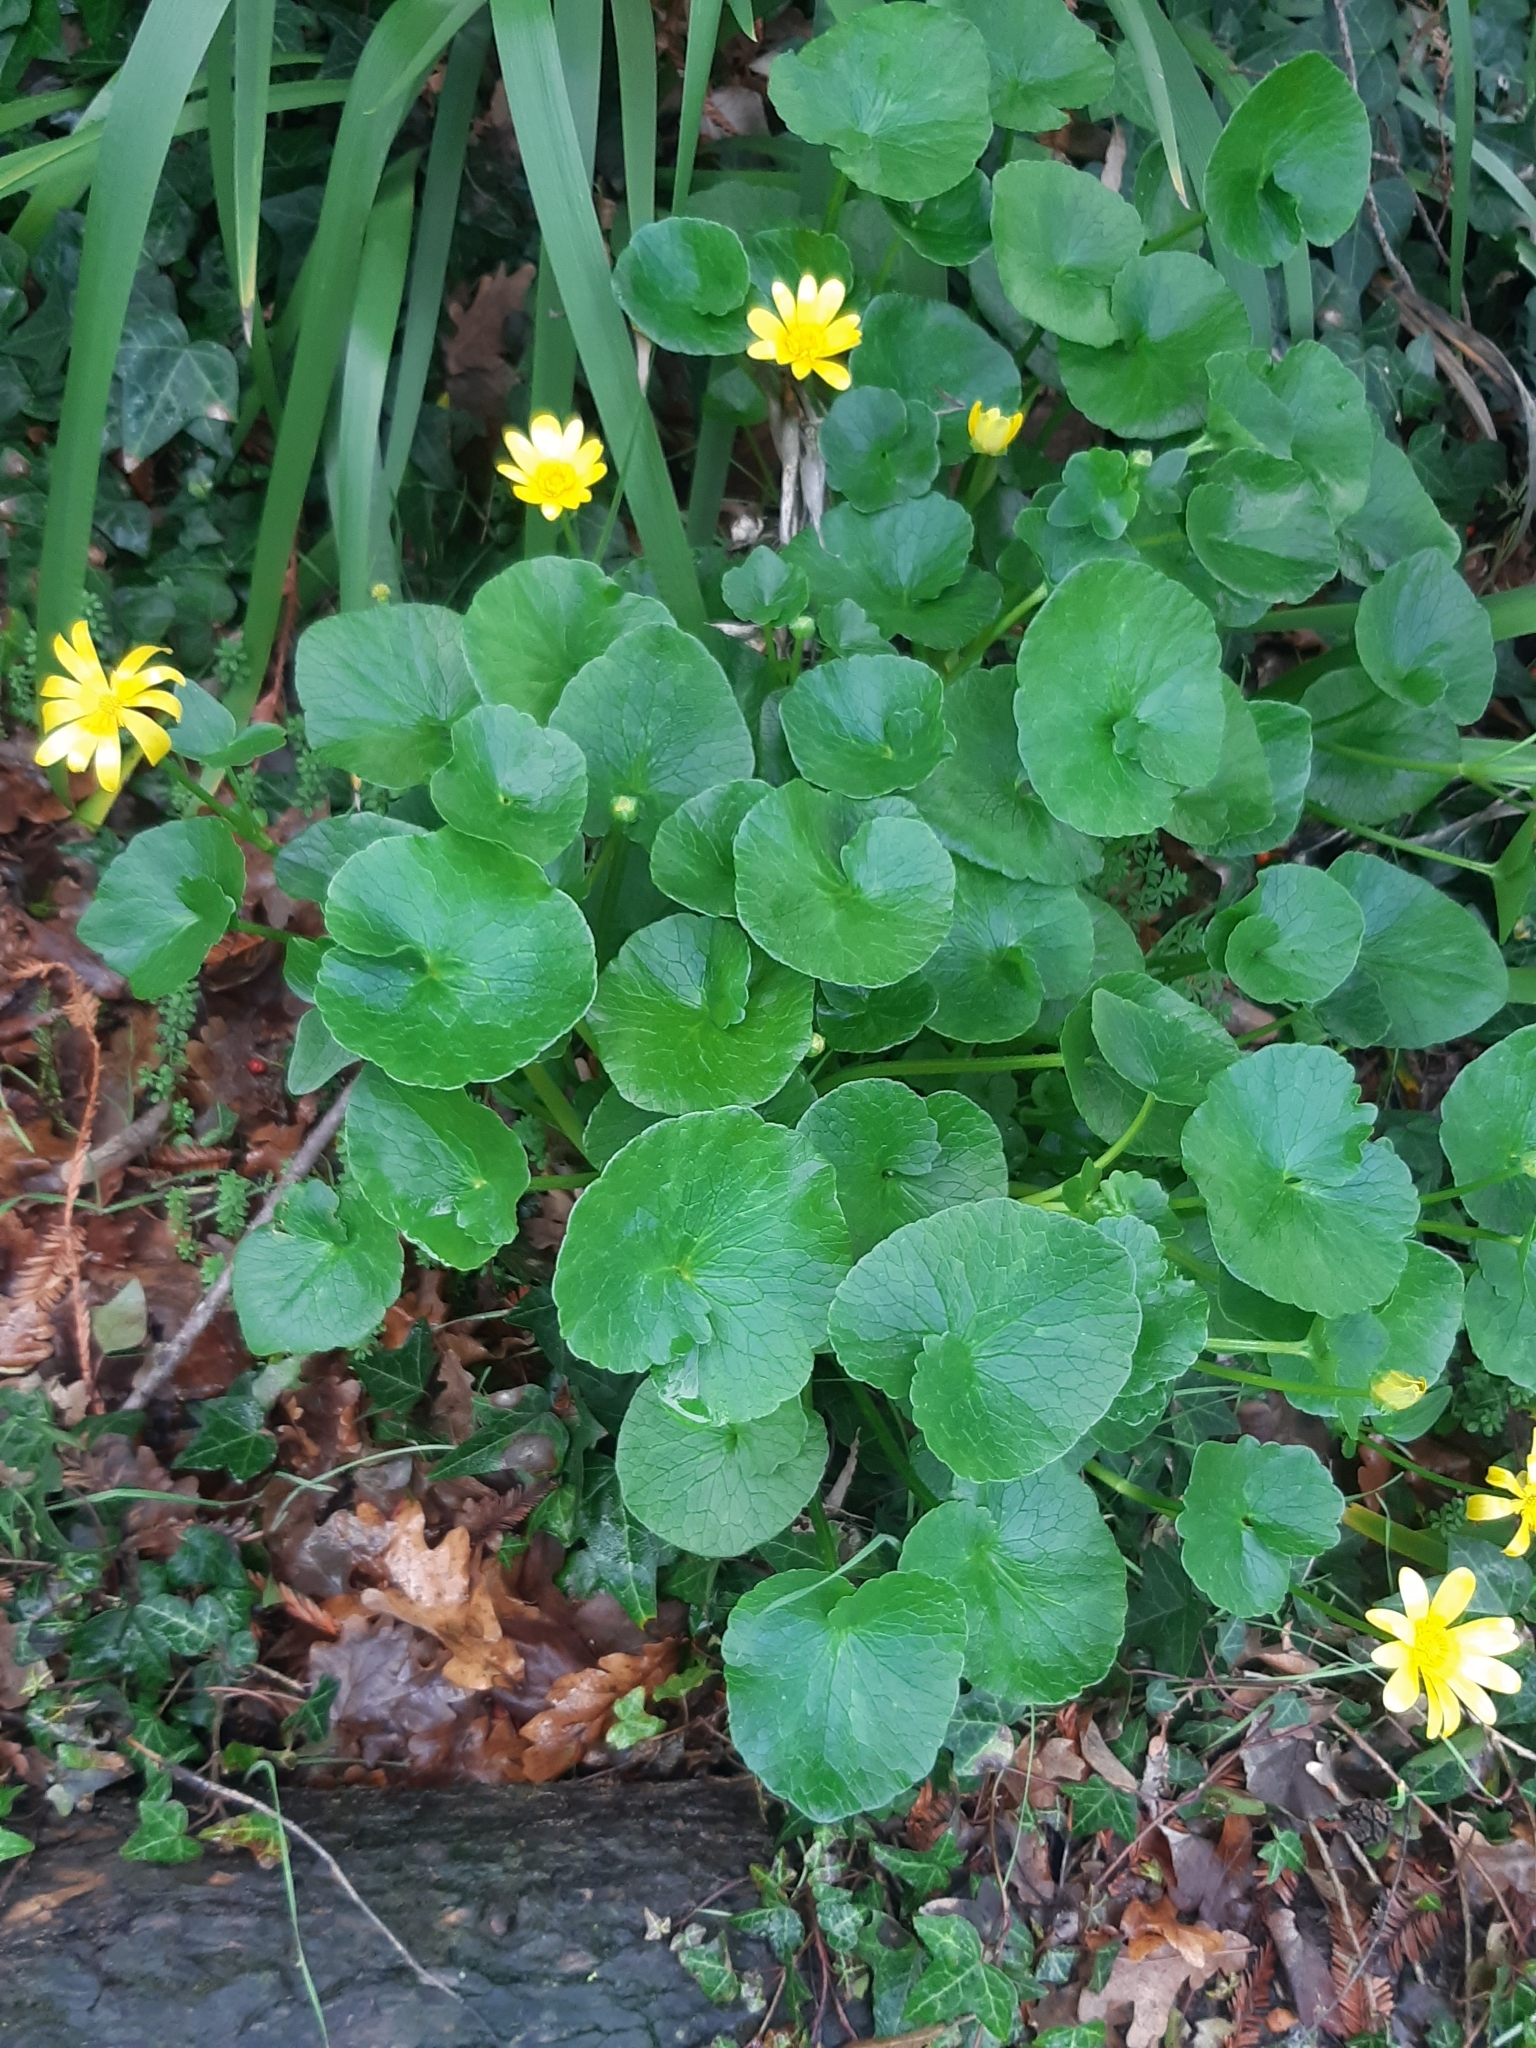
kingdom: Plantae
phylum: Tracheophyta
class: Magnoliopsida
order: Ranunculales
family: Ranunculaceae
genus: Ficaria
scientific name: Ficaria verna
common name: Lesser celandine
